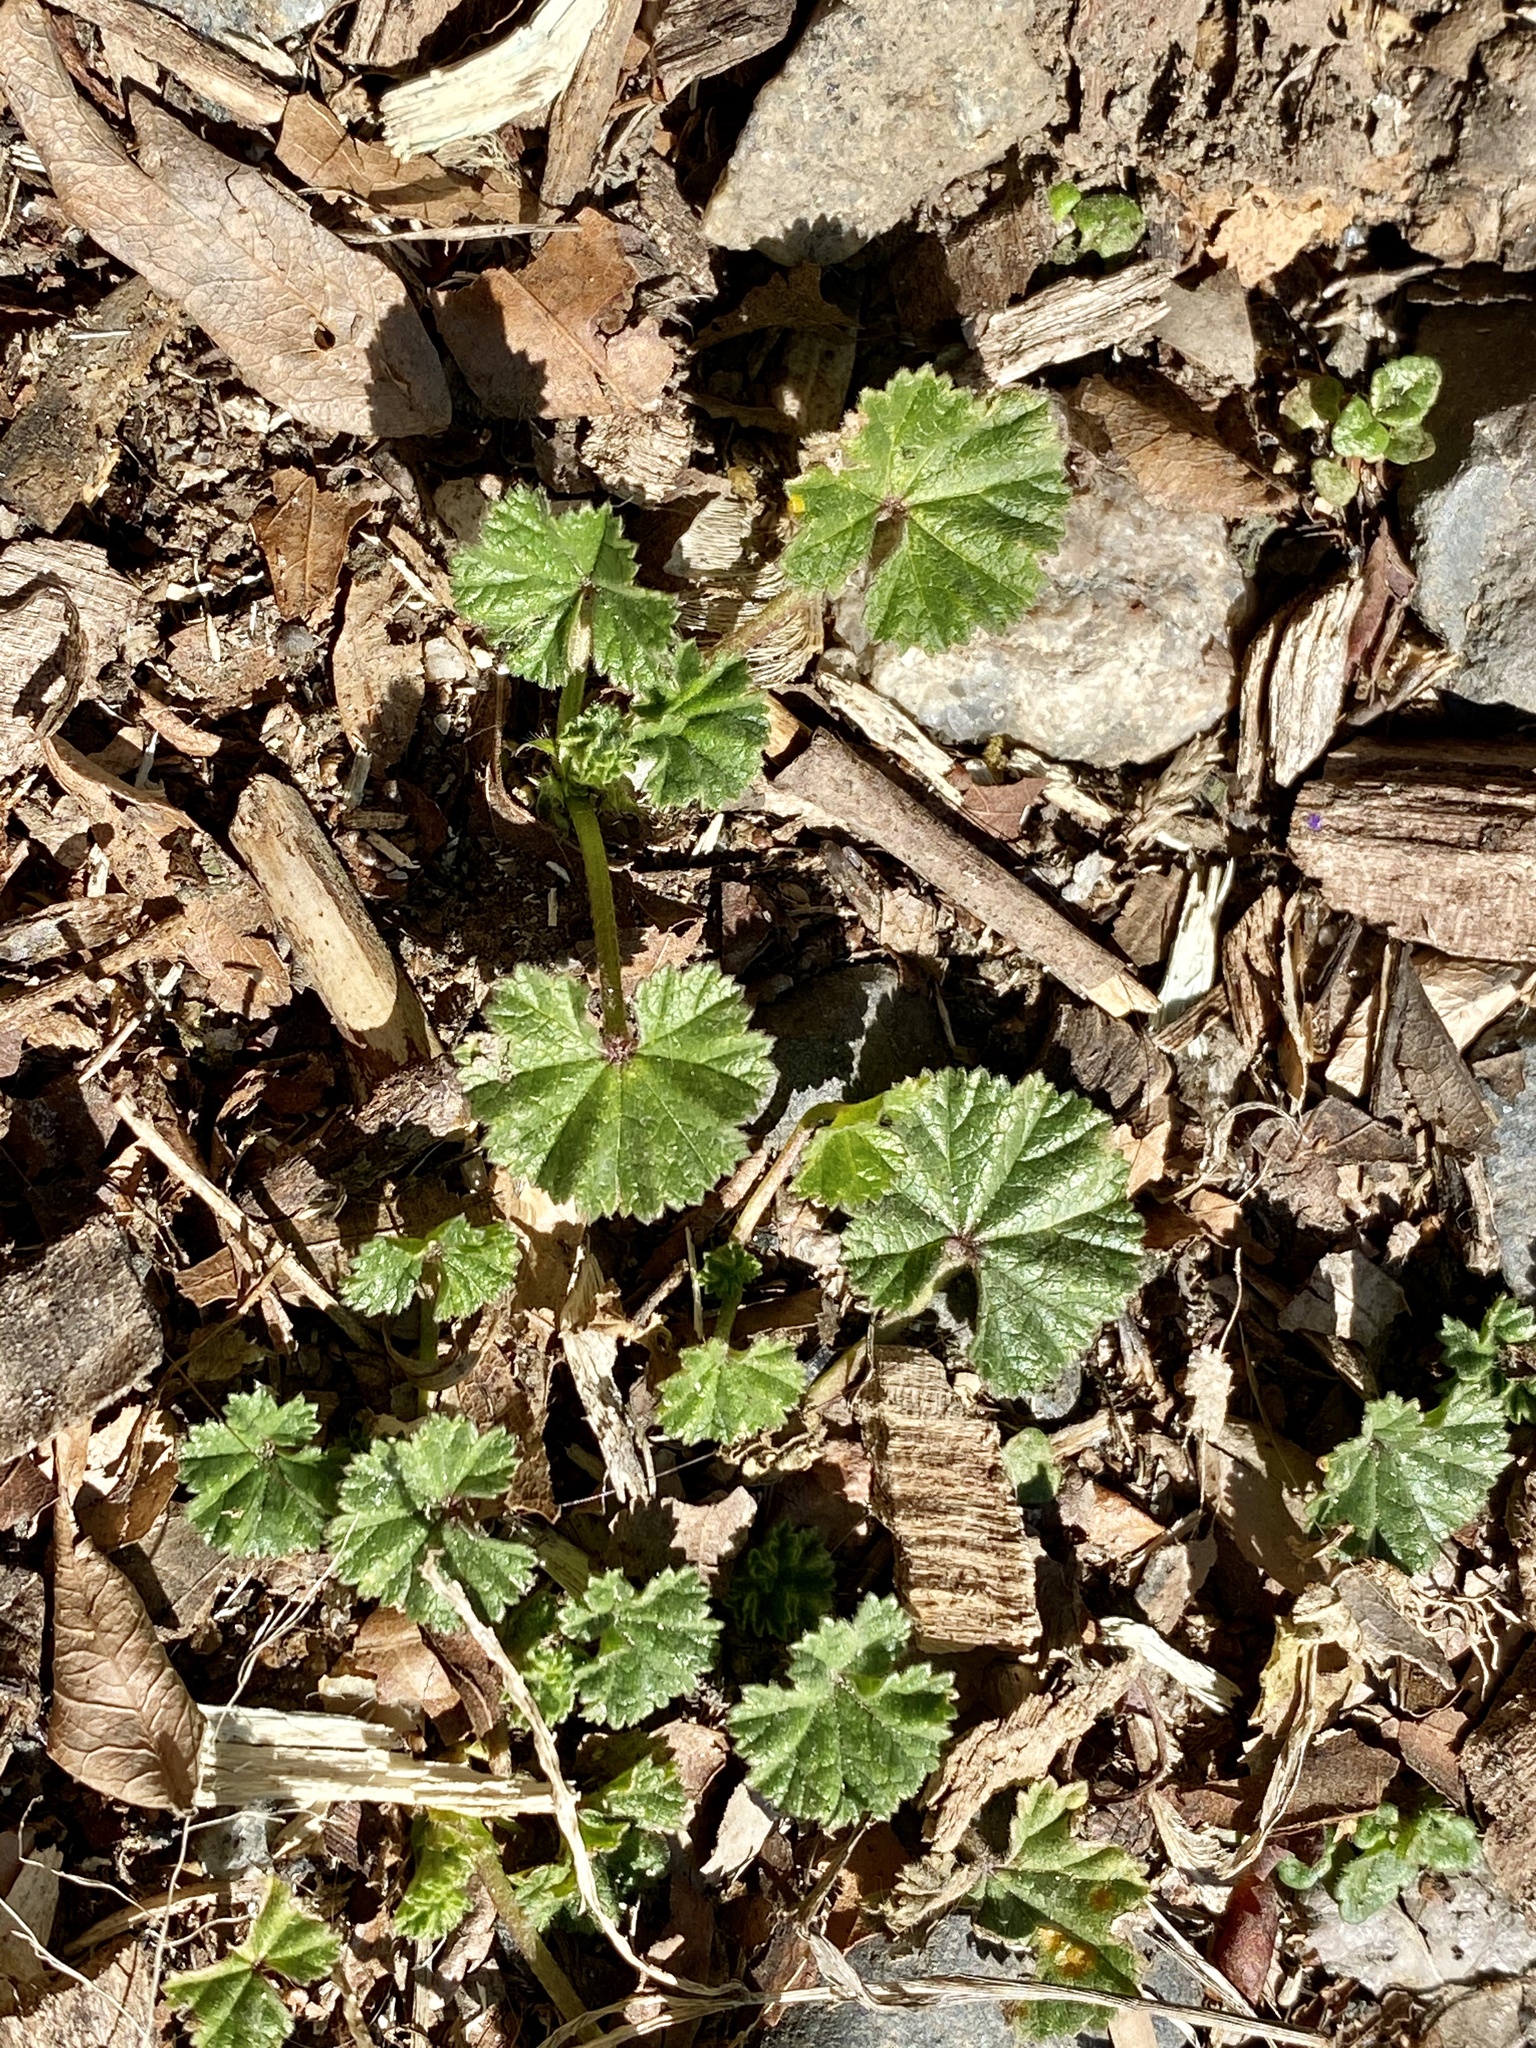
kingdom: Plantae
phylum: Tracheophyta
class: Magnoliopsida
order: Malvales
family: Malvaceae
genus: Malva
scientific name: Malva neglecta
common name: Common mallow
